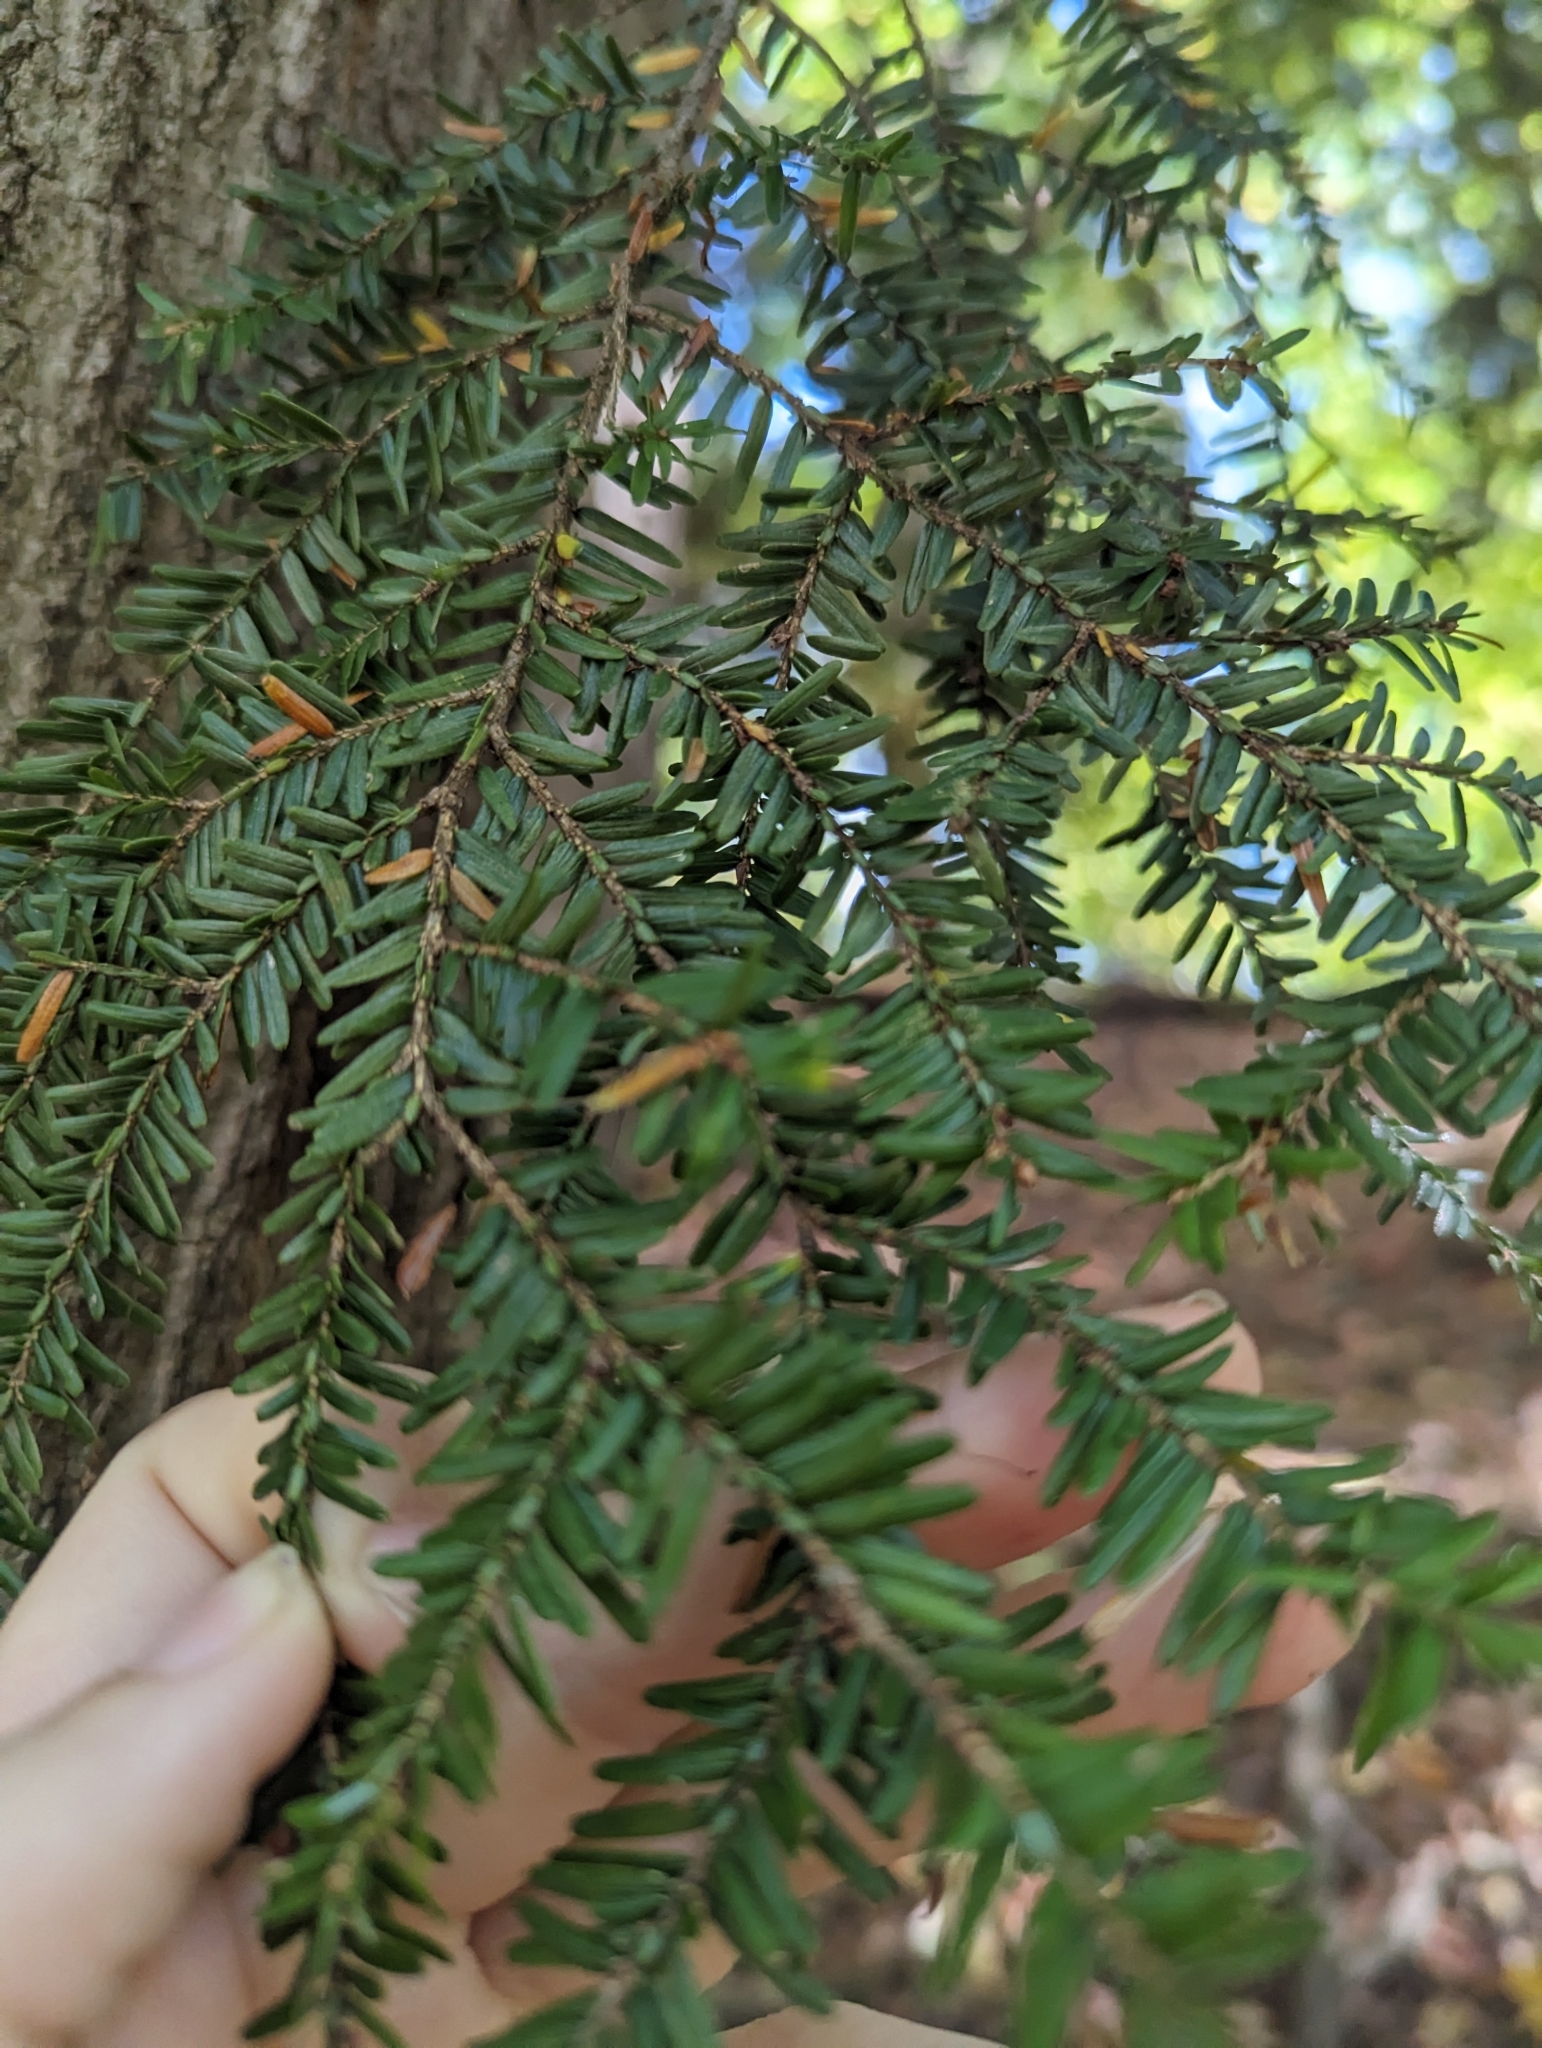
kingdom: Plantae
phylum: Tracheophyta
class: Pinopsida
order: Pinales
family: Pinaceae
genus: Tsuga
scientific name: Tsuga canadensis
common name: Eastern hemlock
